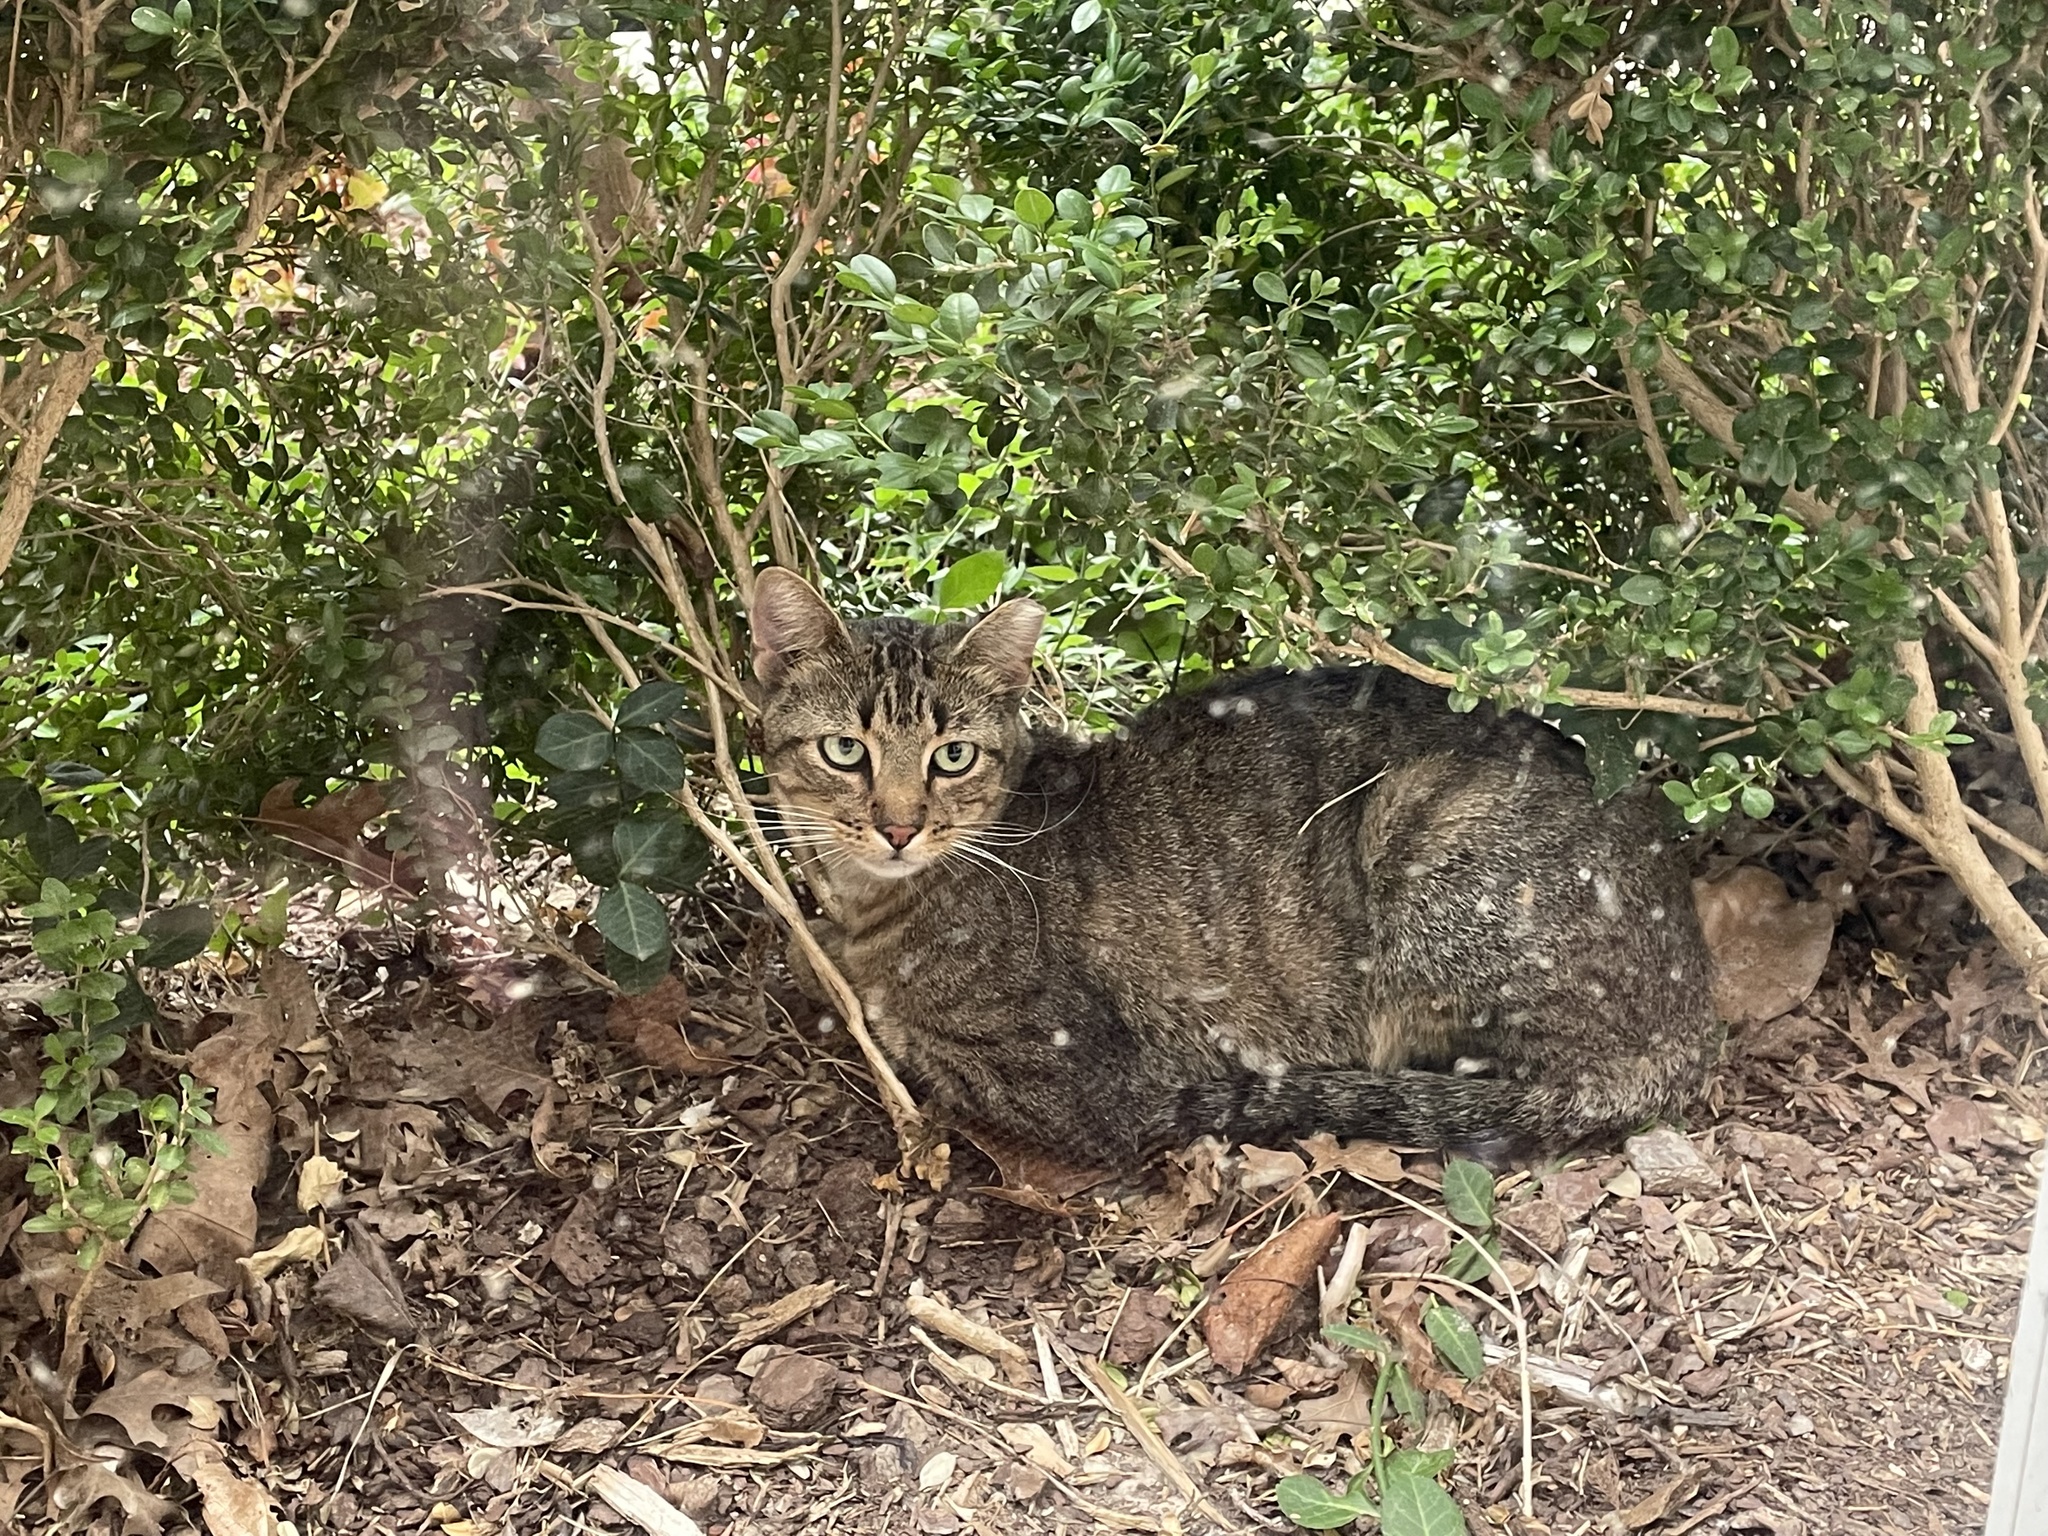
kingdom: Animalia
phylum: Chordata
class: Mammalia
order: Carnivora
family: Felidae
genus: Felis
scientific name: Felis catus
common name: Domestic cat
